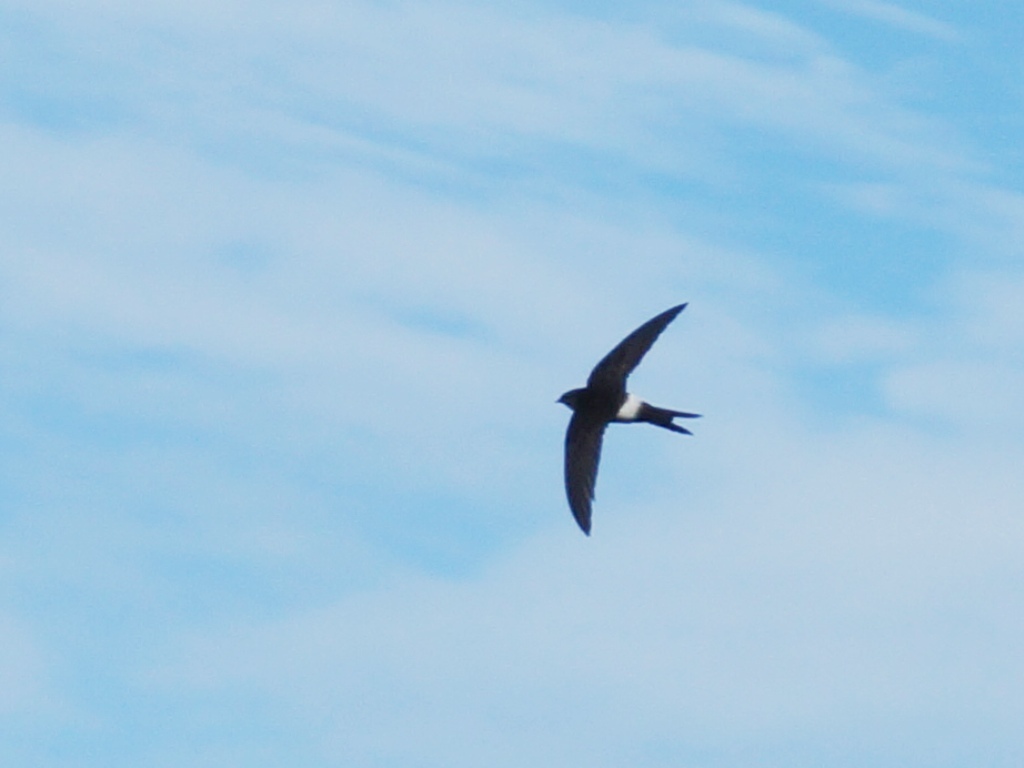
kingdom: Animalia
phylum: Chordata
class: Aves
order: Apodiformes
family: Apodidae
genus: Apus
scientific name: Apus pacificus
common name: Pacific swift
